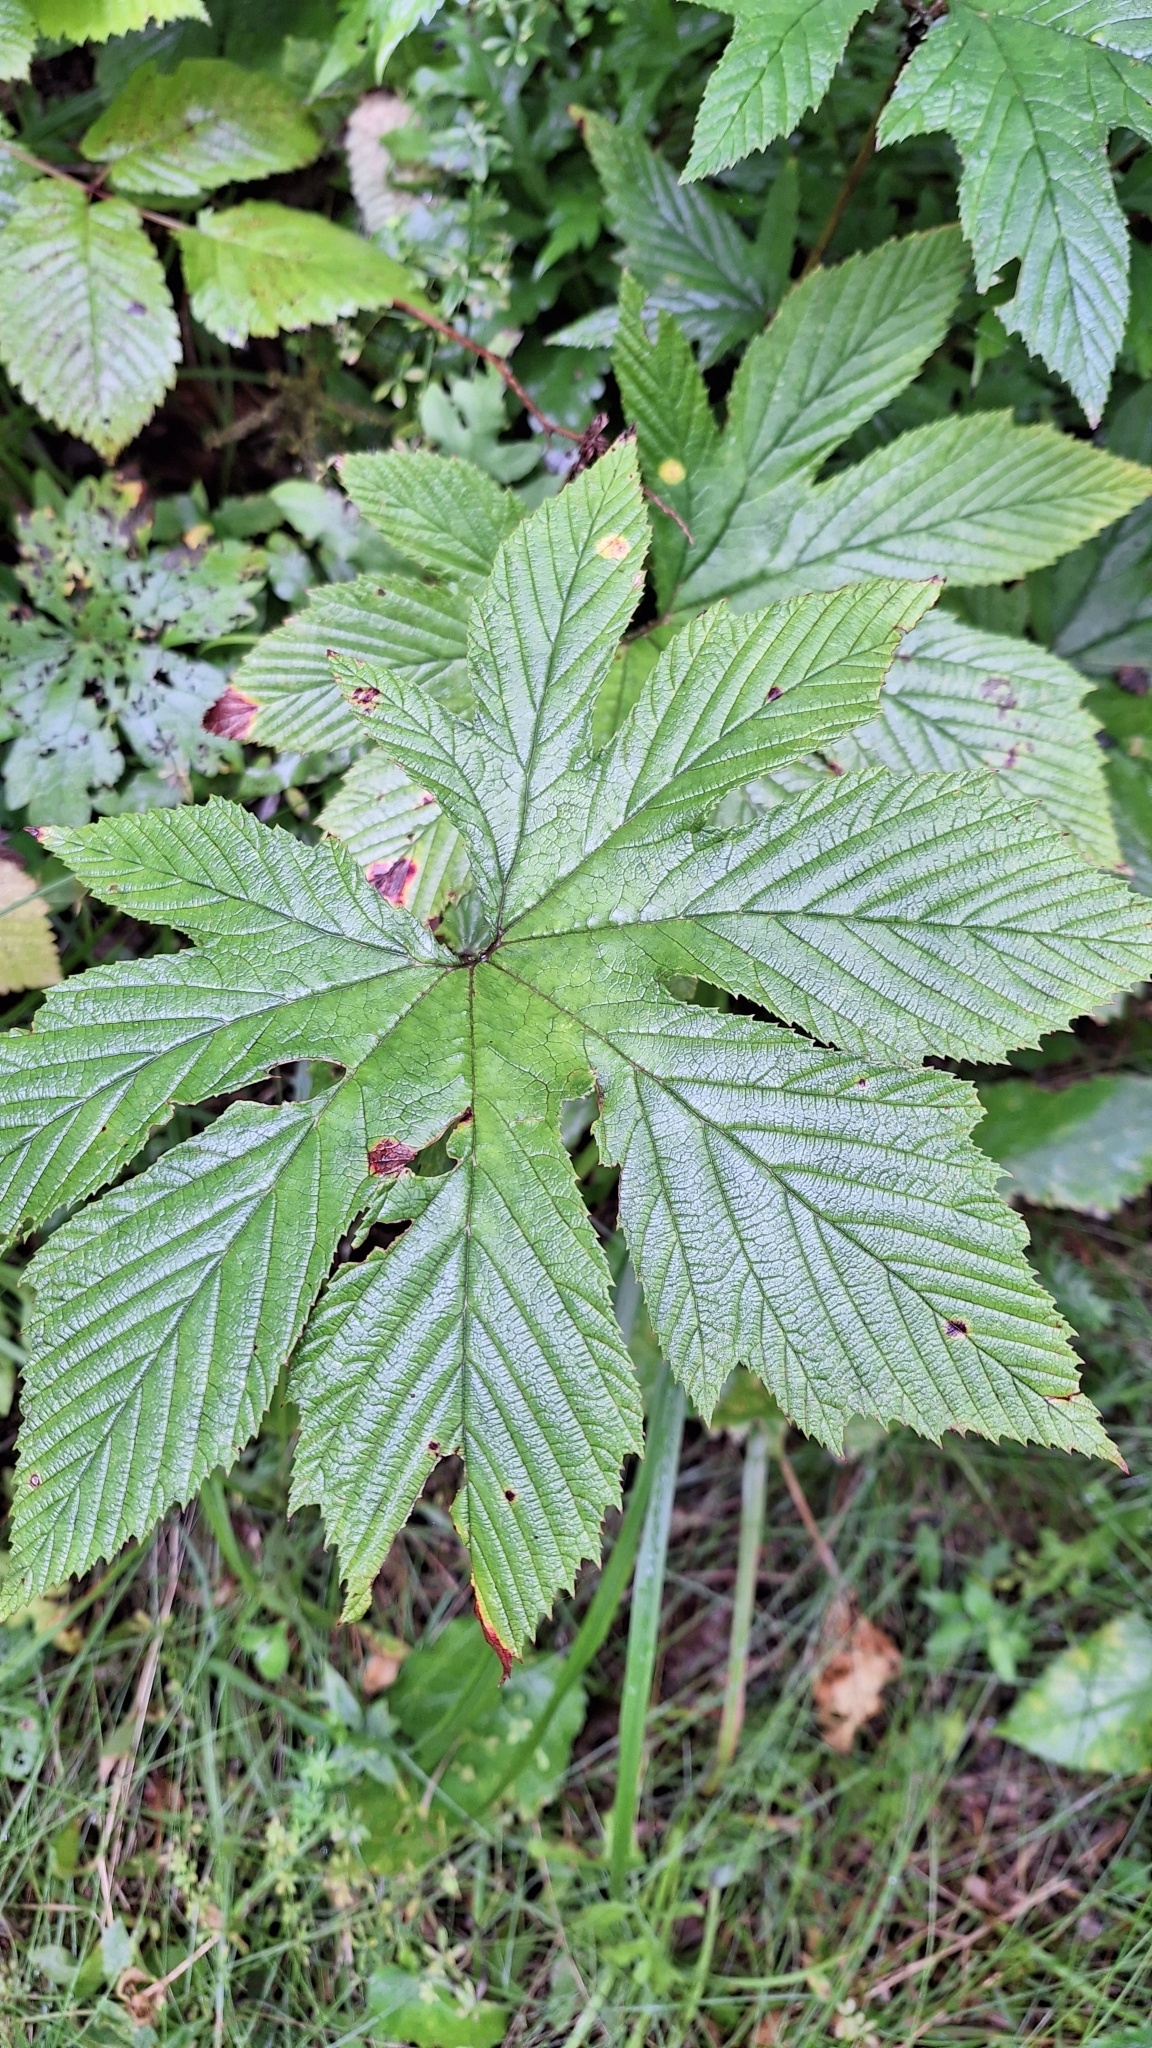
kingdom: Plantae
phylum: Tracheophyta
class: Magnoliopsida
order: Rosales
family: Rosaceae
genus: Filipendula
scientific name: Filipendula digitata
